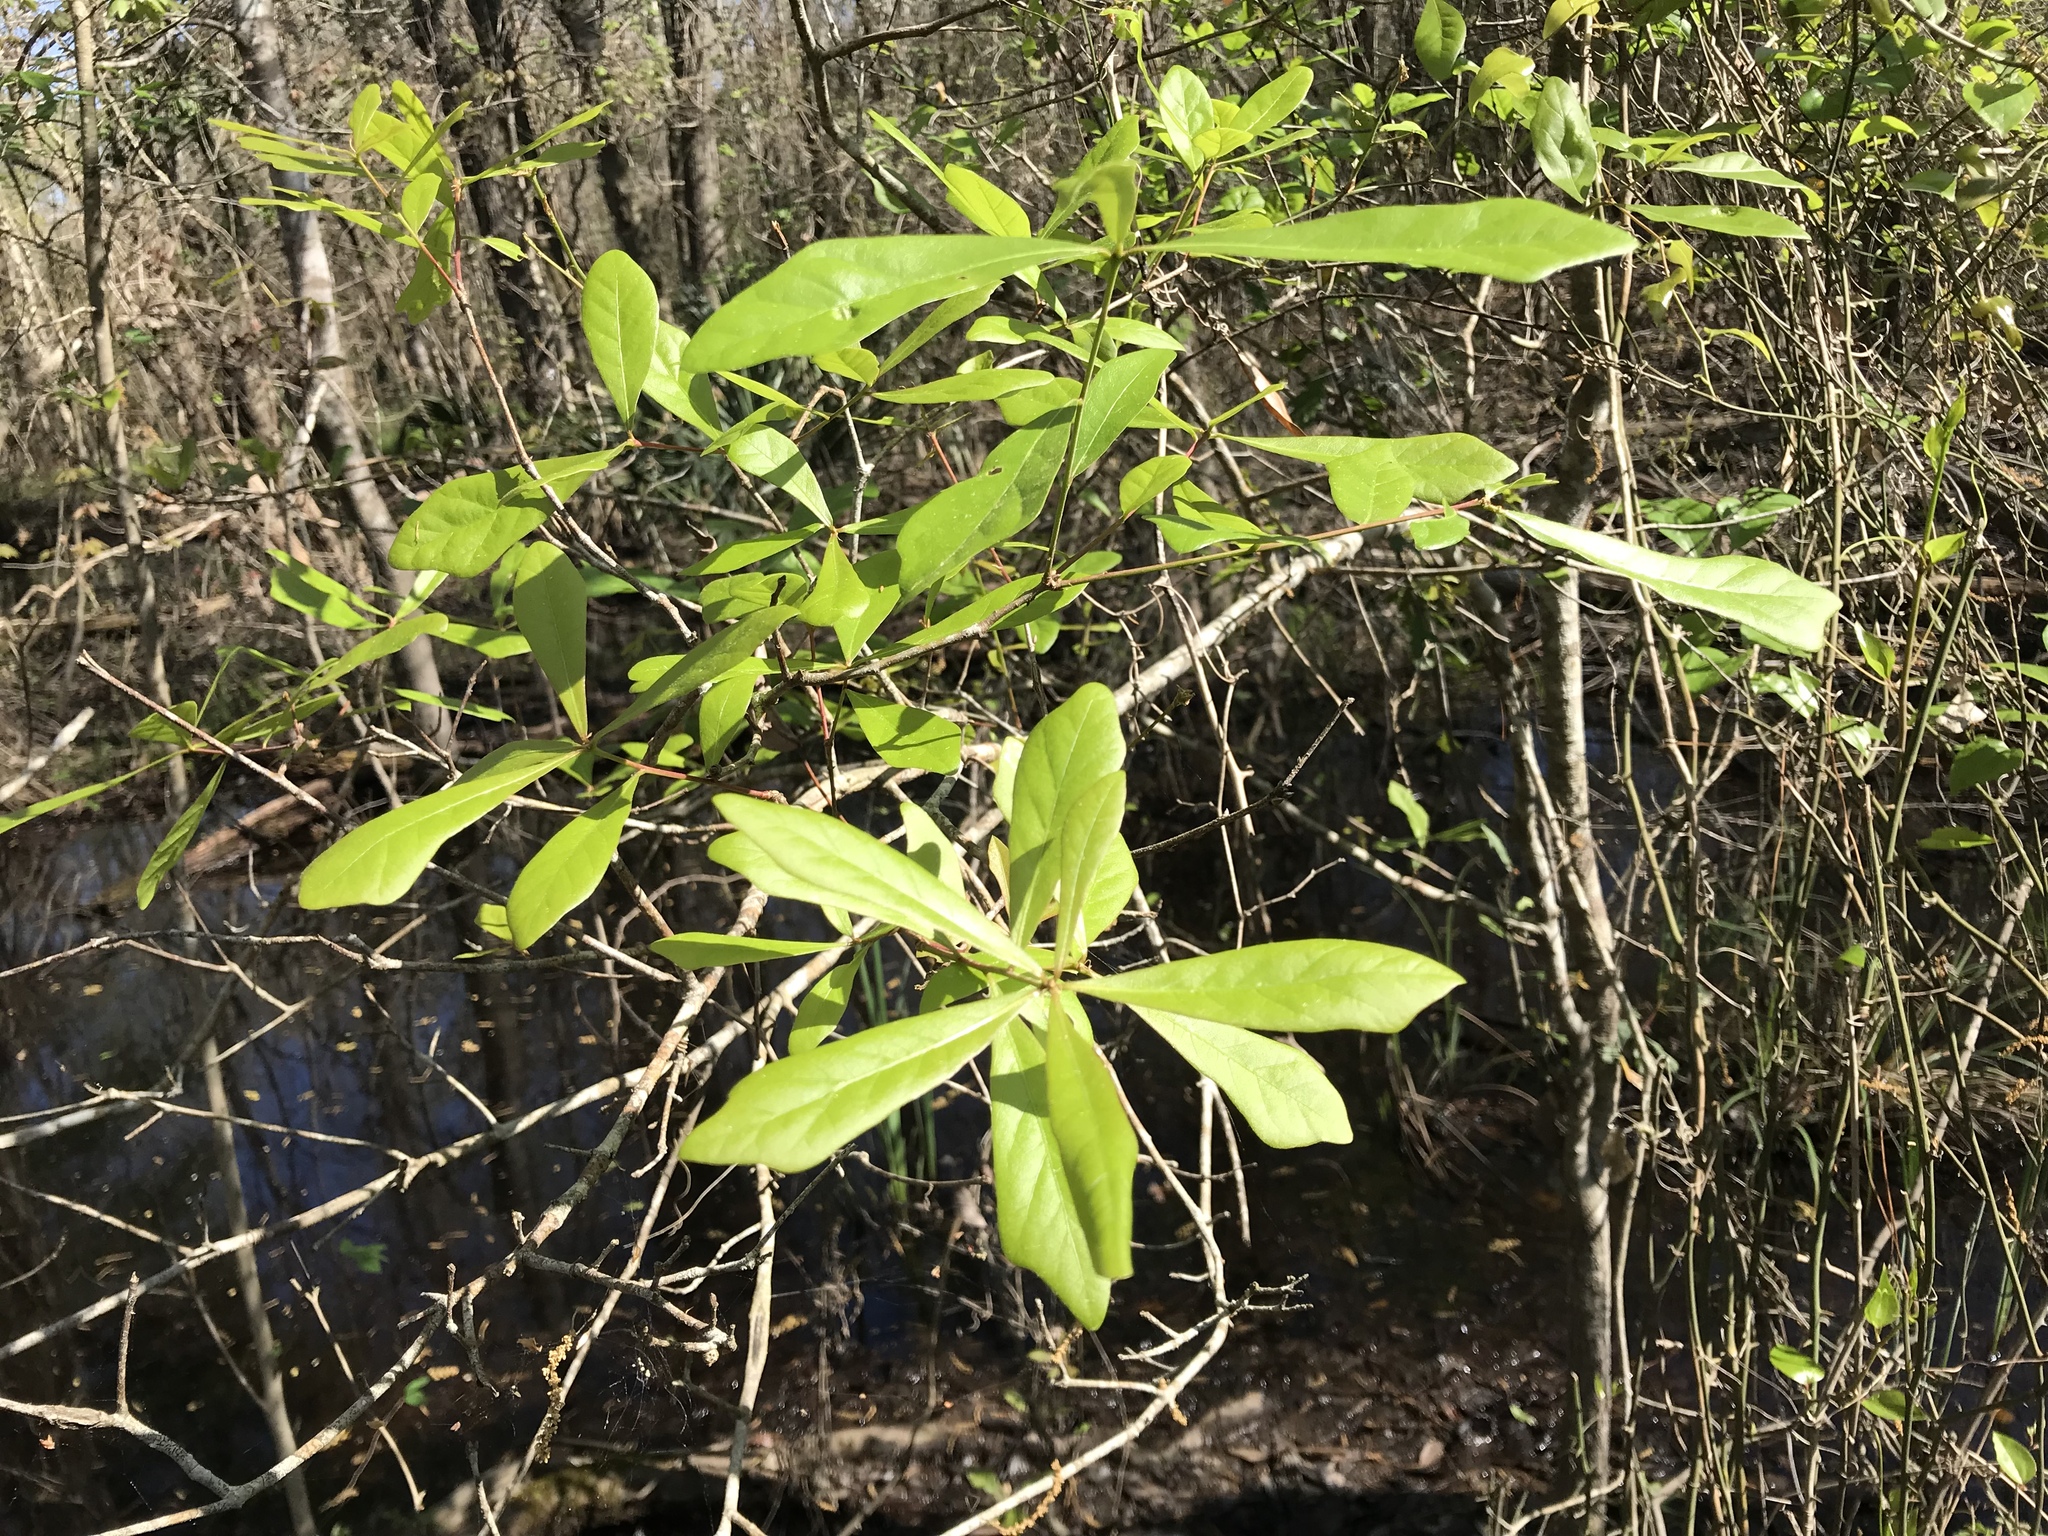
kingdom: Plantae
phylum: Tracheophyta
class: Magnoliopsida
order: Fagales
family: Fagaceae
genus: Quercus
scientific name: Quercus nigra
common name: Water oak
